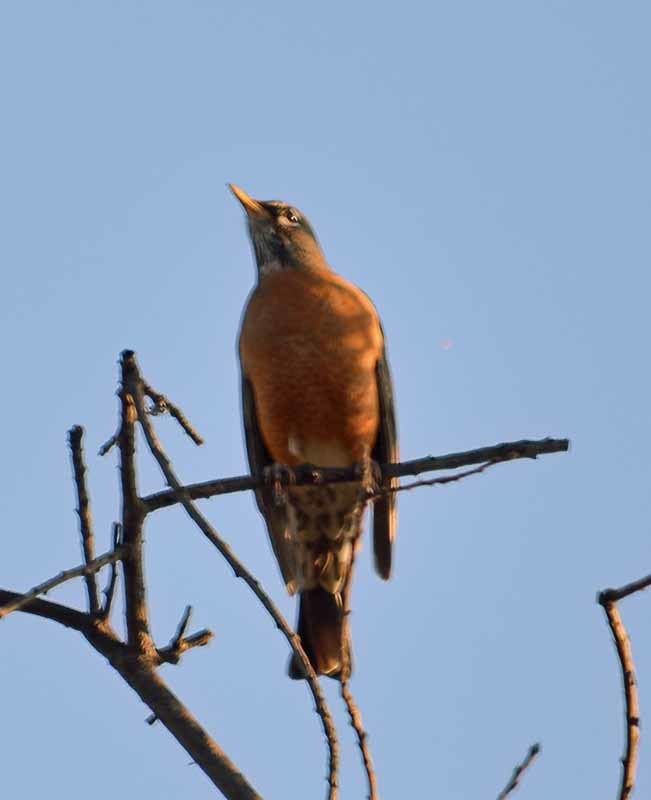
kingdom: Animalia
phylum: Chordata
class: Aves
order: Passeriformes
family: Turdidae
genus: Turdus
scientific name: Turdus migratorius
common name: American robin
